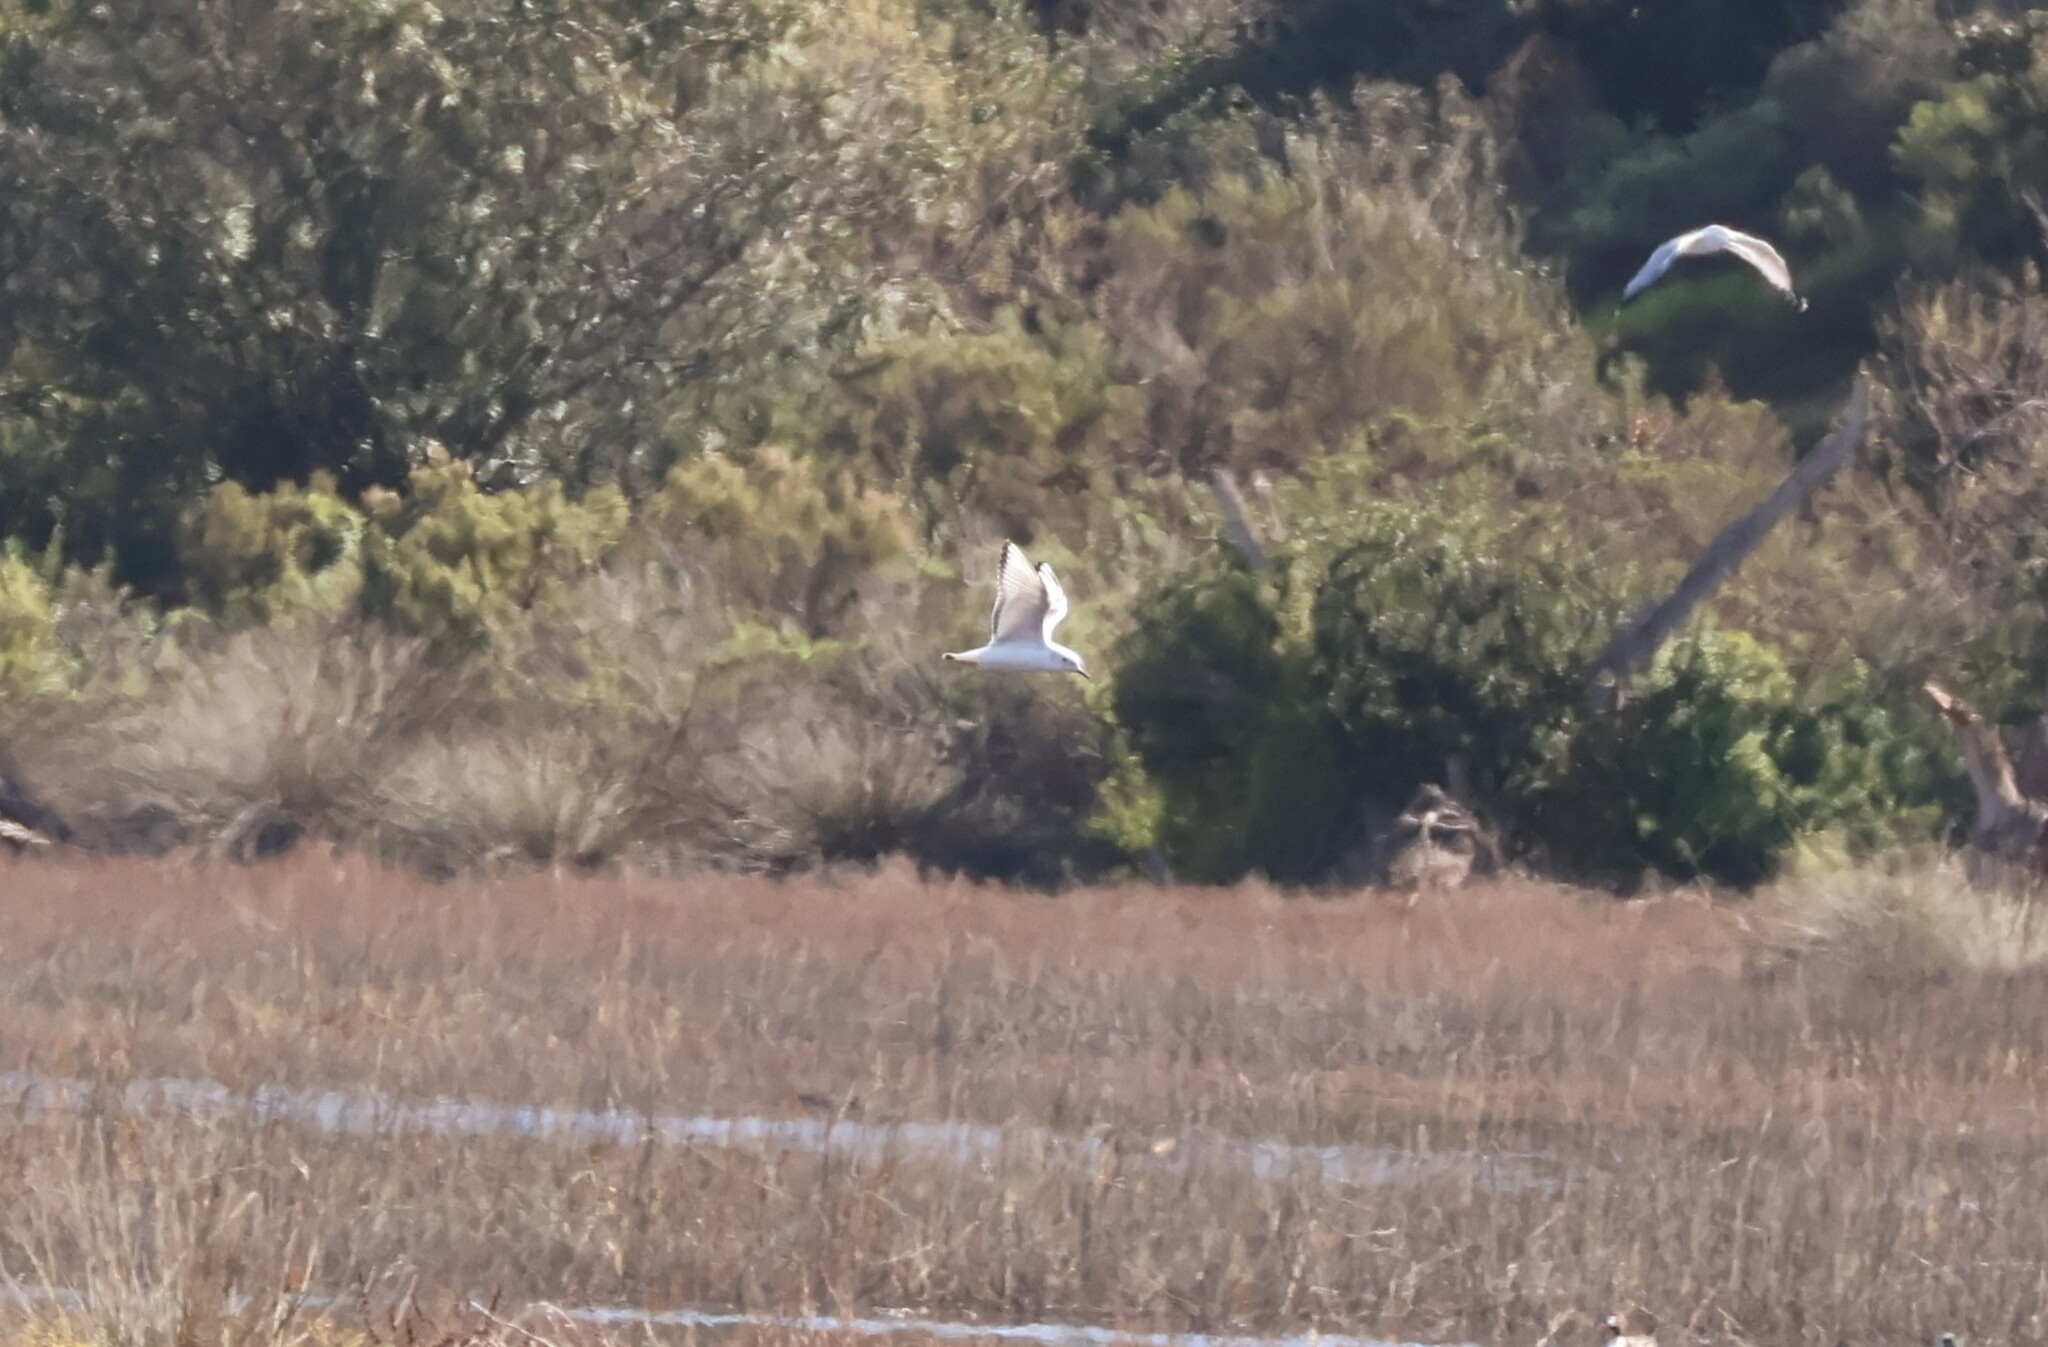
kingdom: Animalia
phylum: Chordata
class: Aves
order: Charadriiformes
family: Laridae
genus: Chroicocephalus
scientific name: Chroicocephalus philadelphia
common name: Bonaparte's gull
